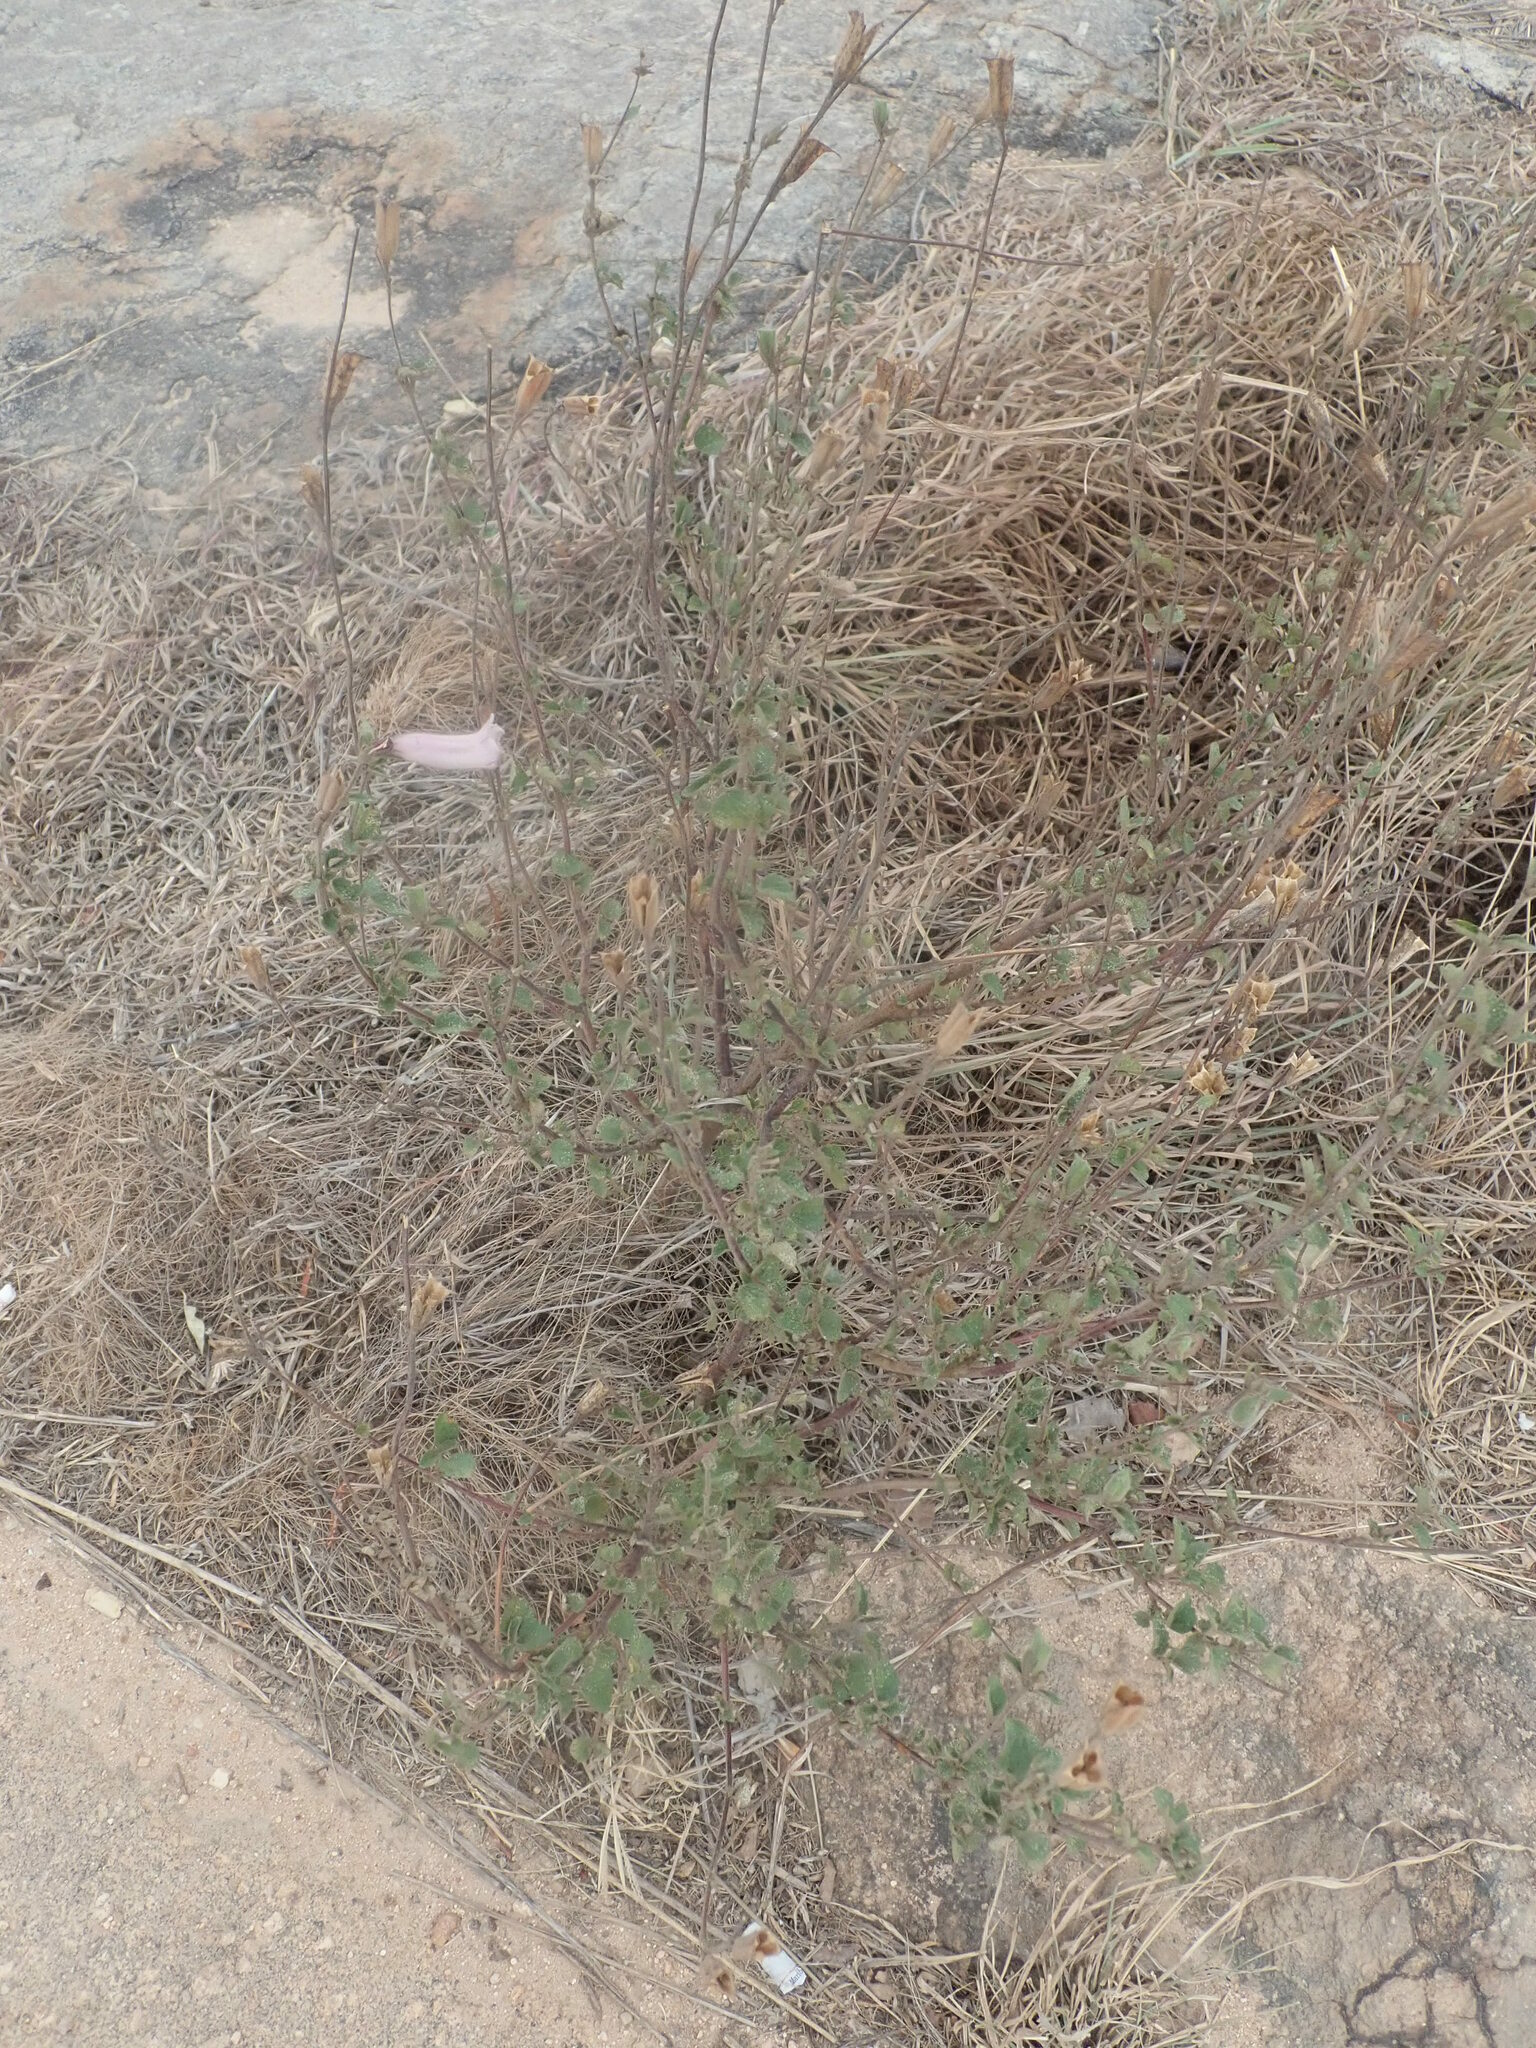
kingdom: Plantae
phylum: Tracheophyta
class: Magnoliopsida
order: Lamiales
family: Pedaliaceae
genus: Sesamum
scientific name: Sesamum trilobum
